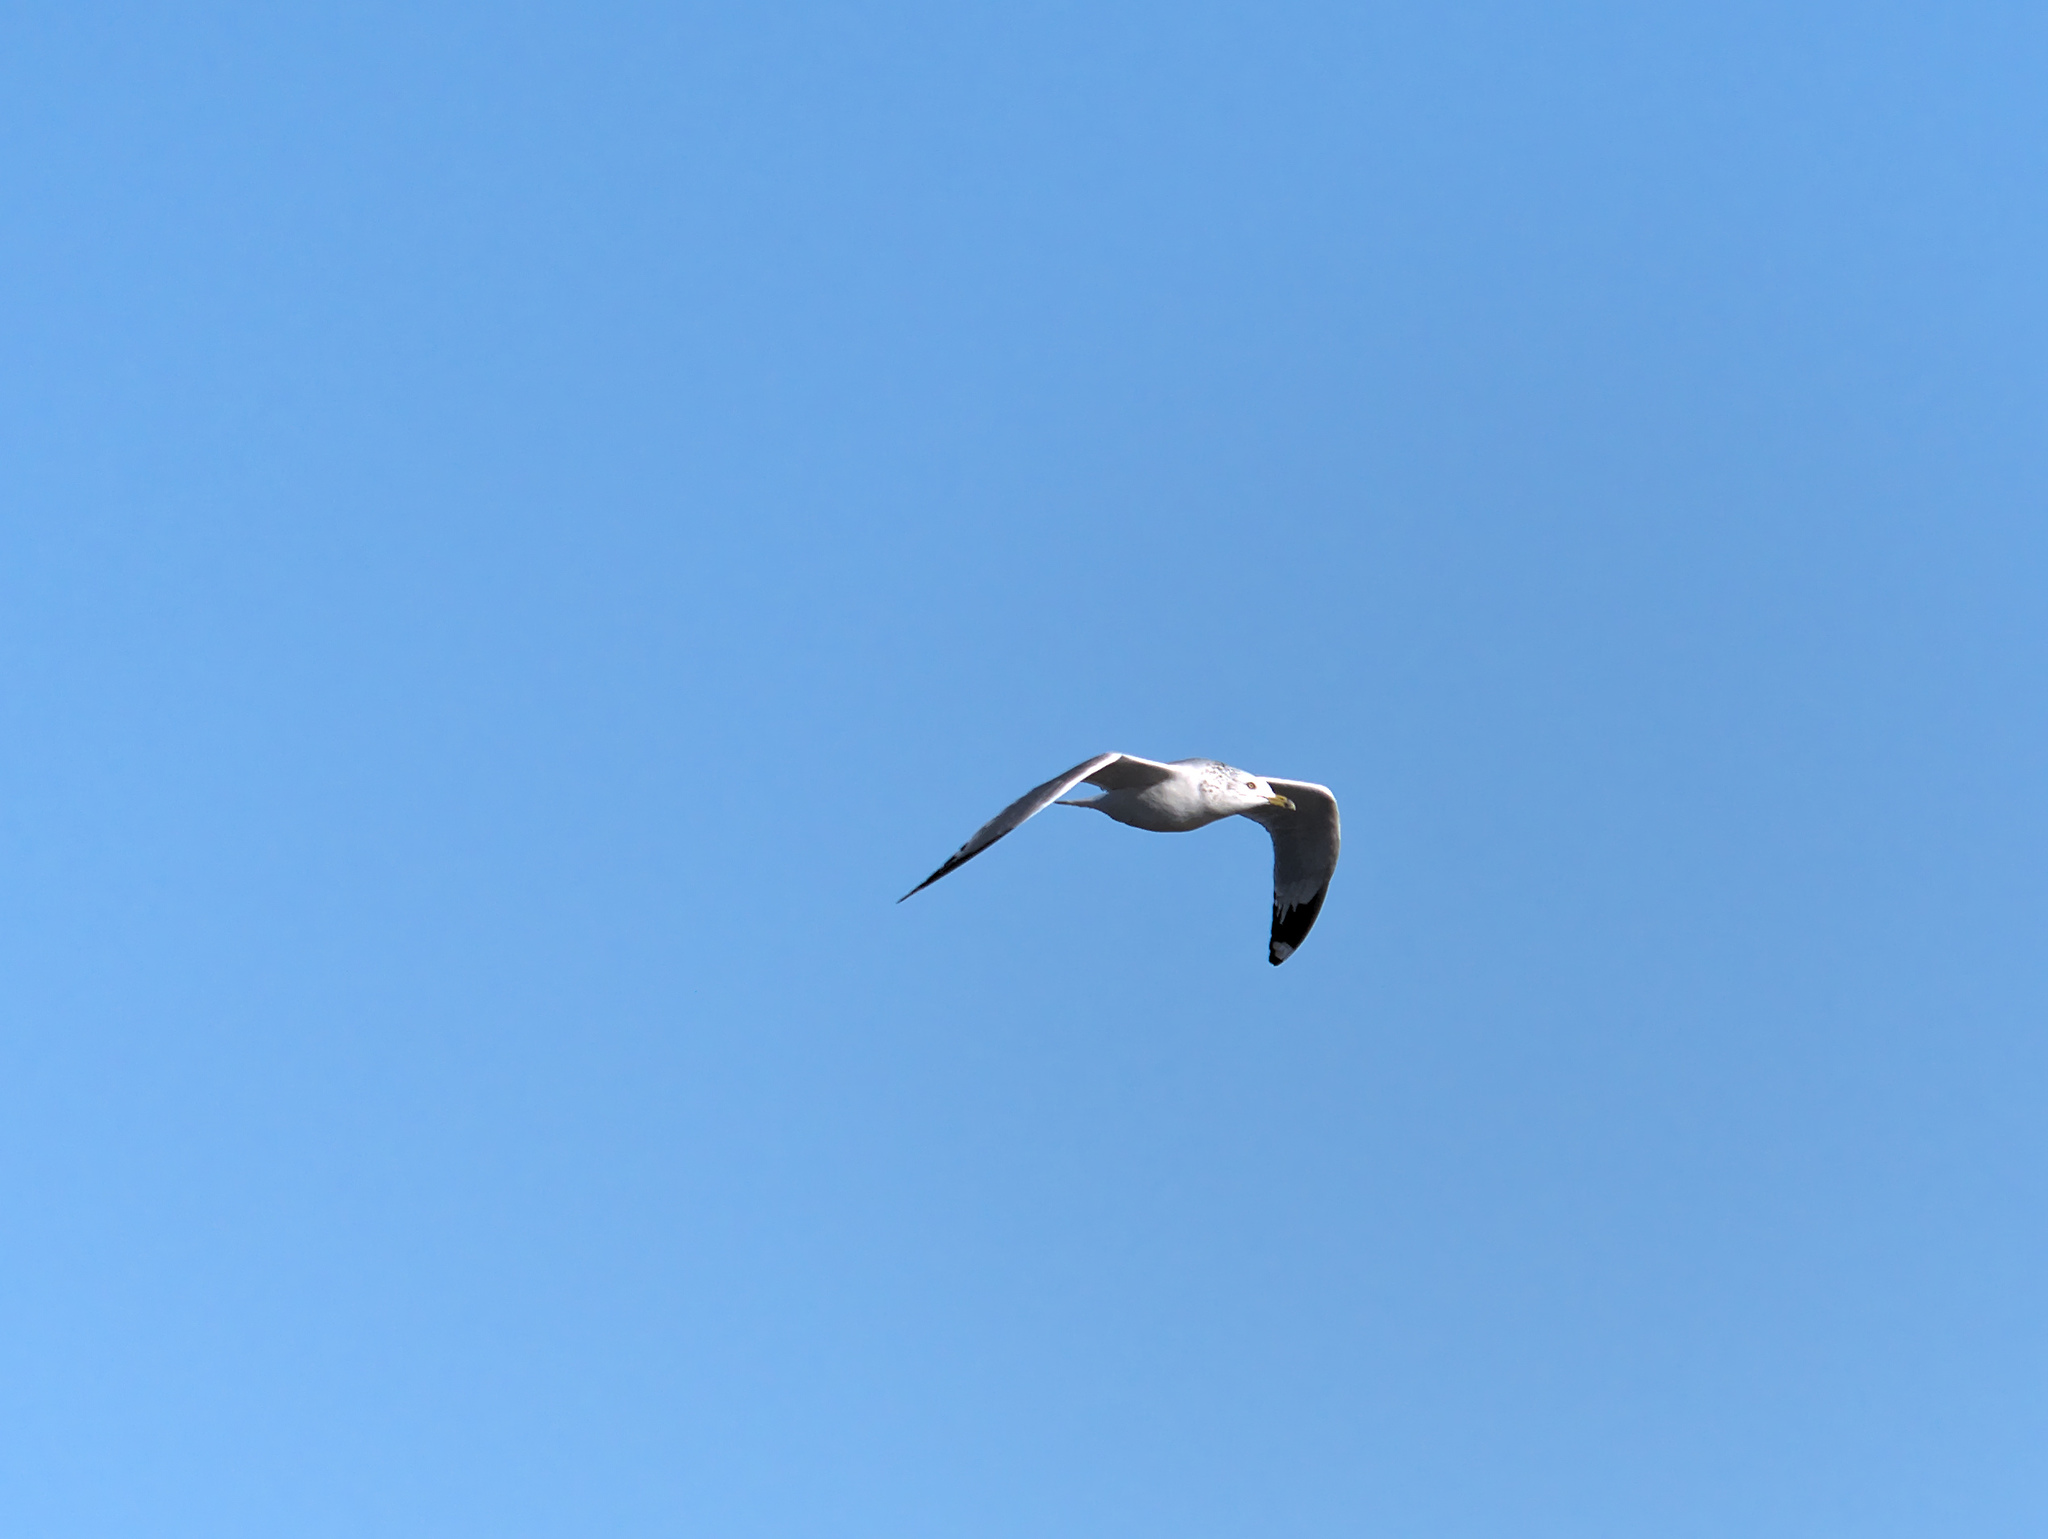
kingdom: Animalia
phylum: Chordata
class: Aves
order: Charadriiformes
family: Laridae
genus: Larus
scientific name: Larus delawarensis
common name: Ring-billed gull
